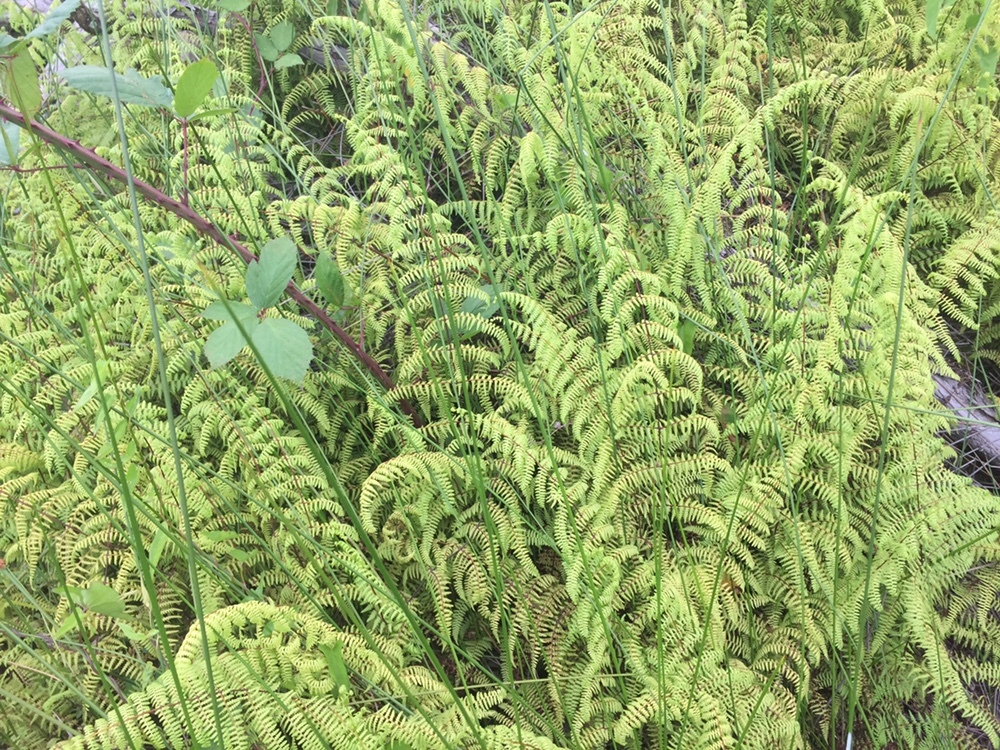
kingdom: Plantae
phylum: Tracheophyta
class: Polypodiopsida
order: Polypodiales
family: Dennstaedtiaceae
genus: Hiya
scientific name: Hiya distans
